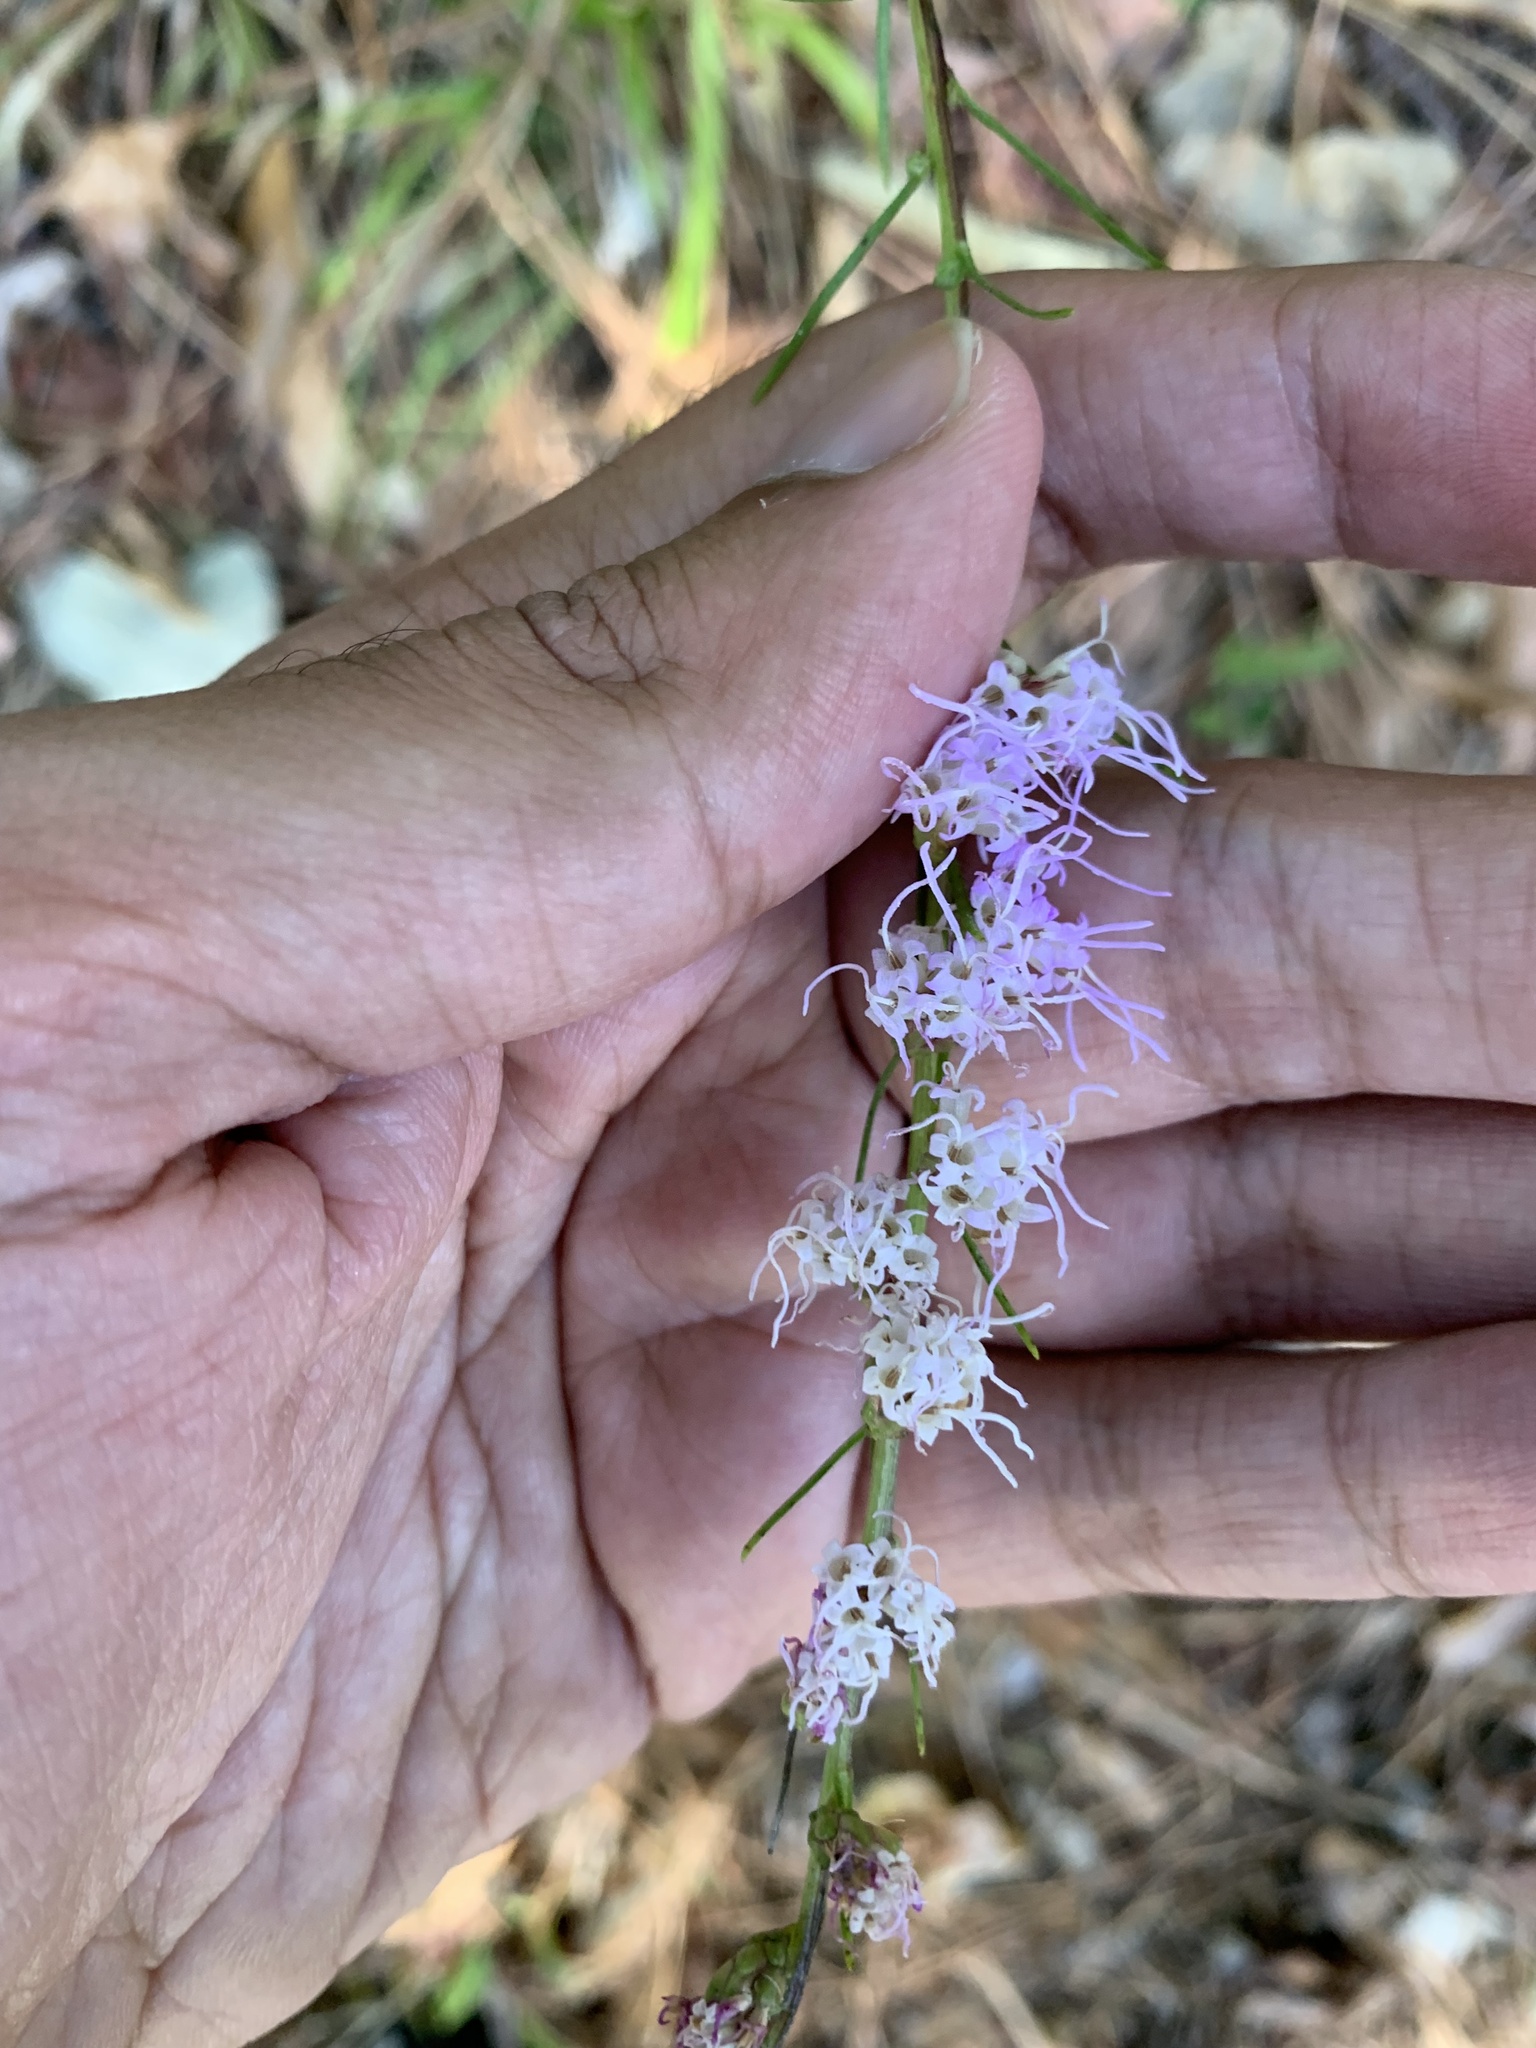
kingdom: Plantae
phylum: Tracheophyta
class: Magnoliopsida
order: Asterales
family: Asteraceae
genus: Liatris
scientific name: Liatris pilosa
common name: Grass-leaf gayfeather
